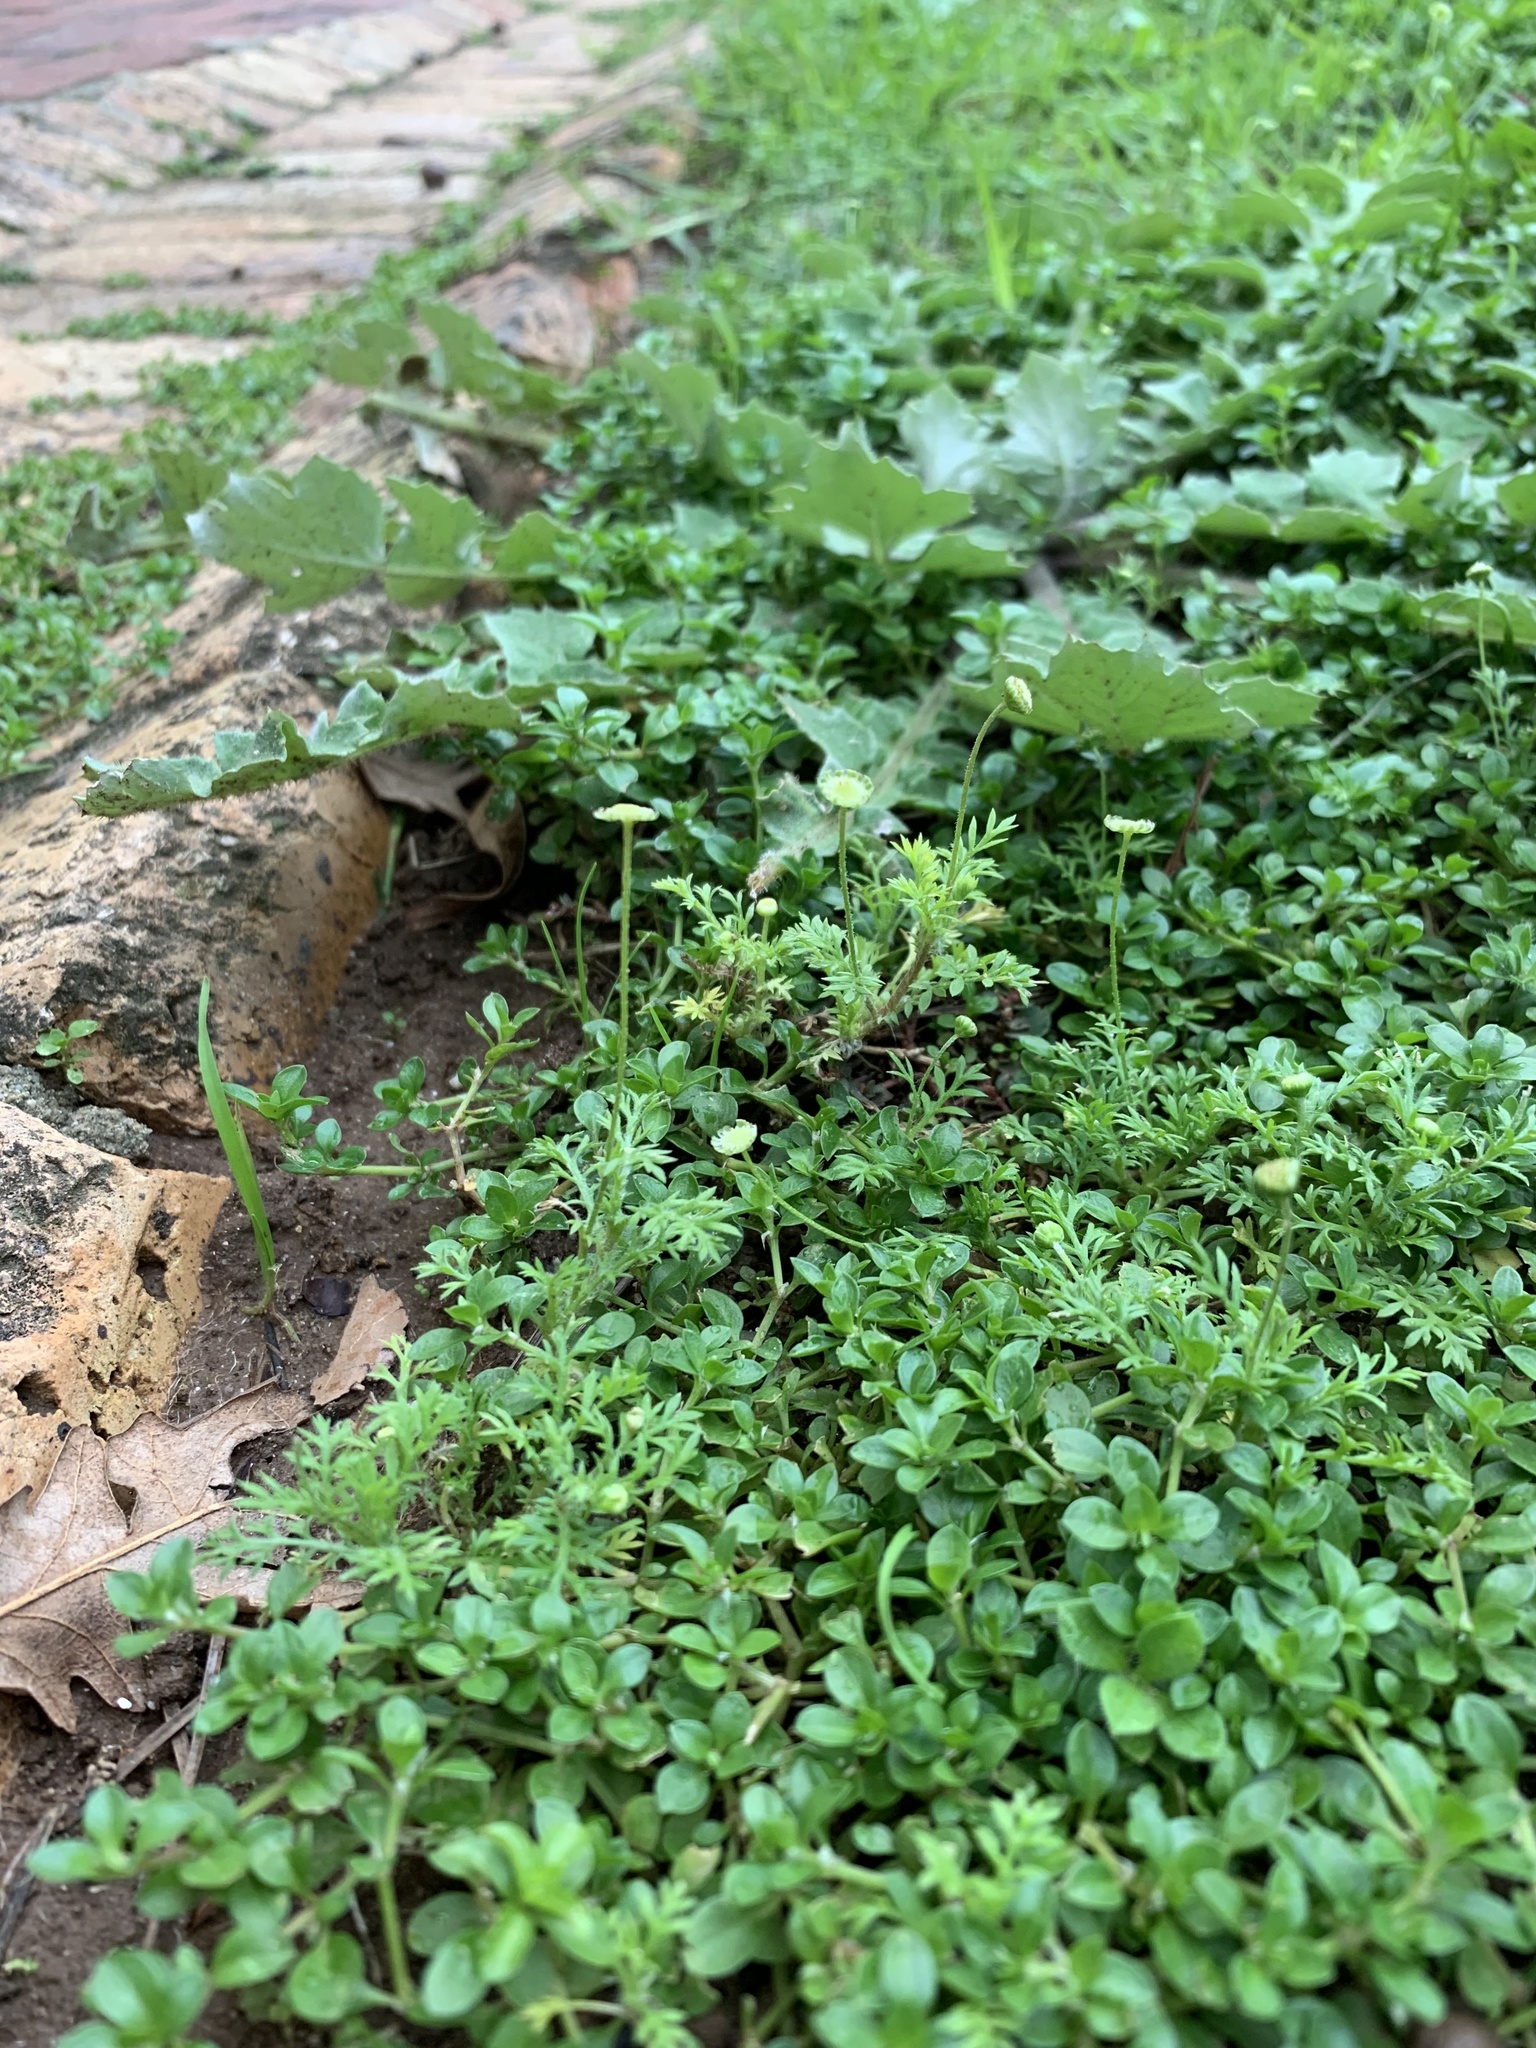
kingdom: Plantae
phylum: Tracheophyta
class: Magnoliopsida
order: Asterales
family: Asteraceae
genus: Cotula
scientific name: Cotula australis
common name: Australian waterbuttons
